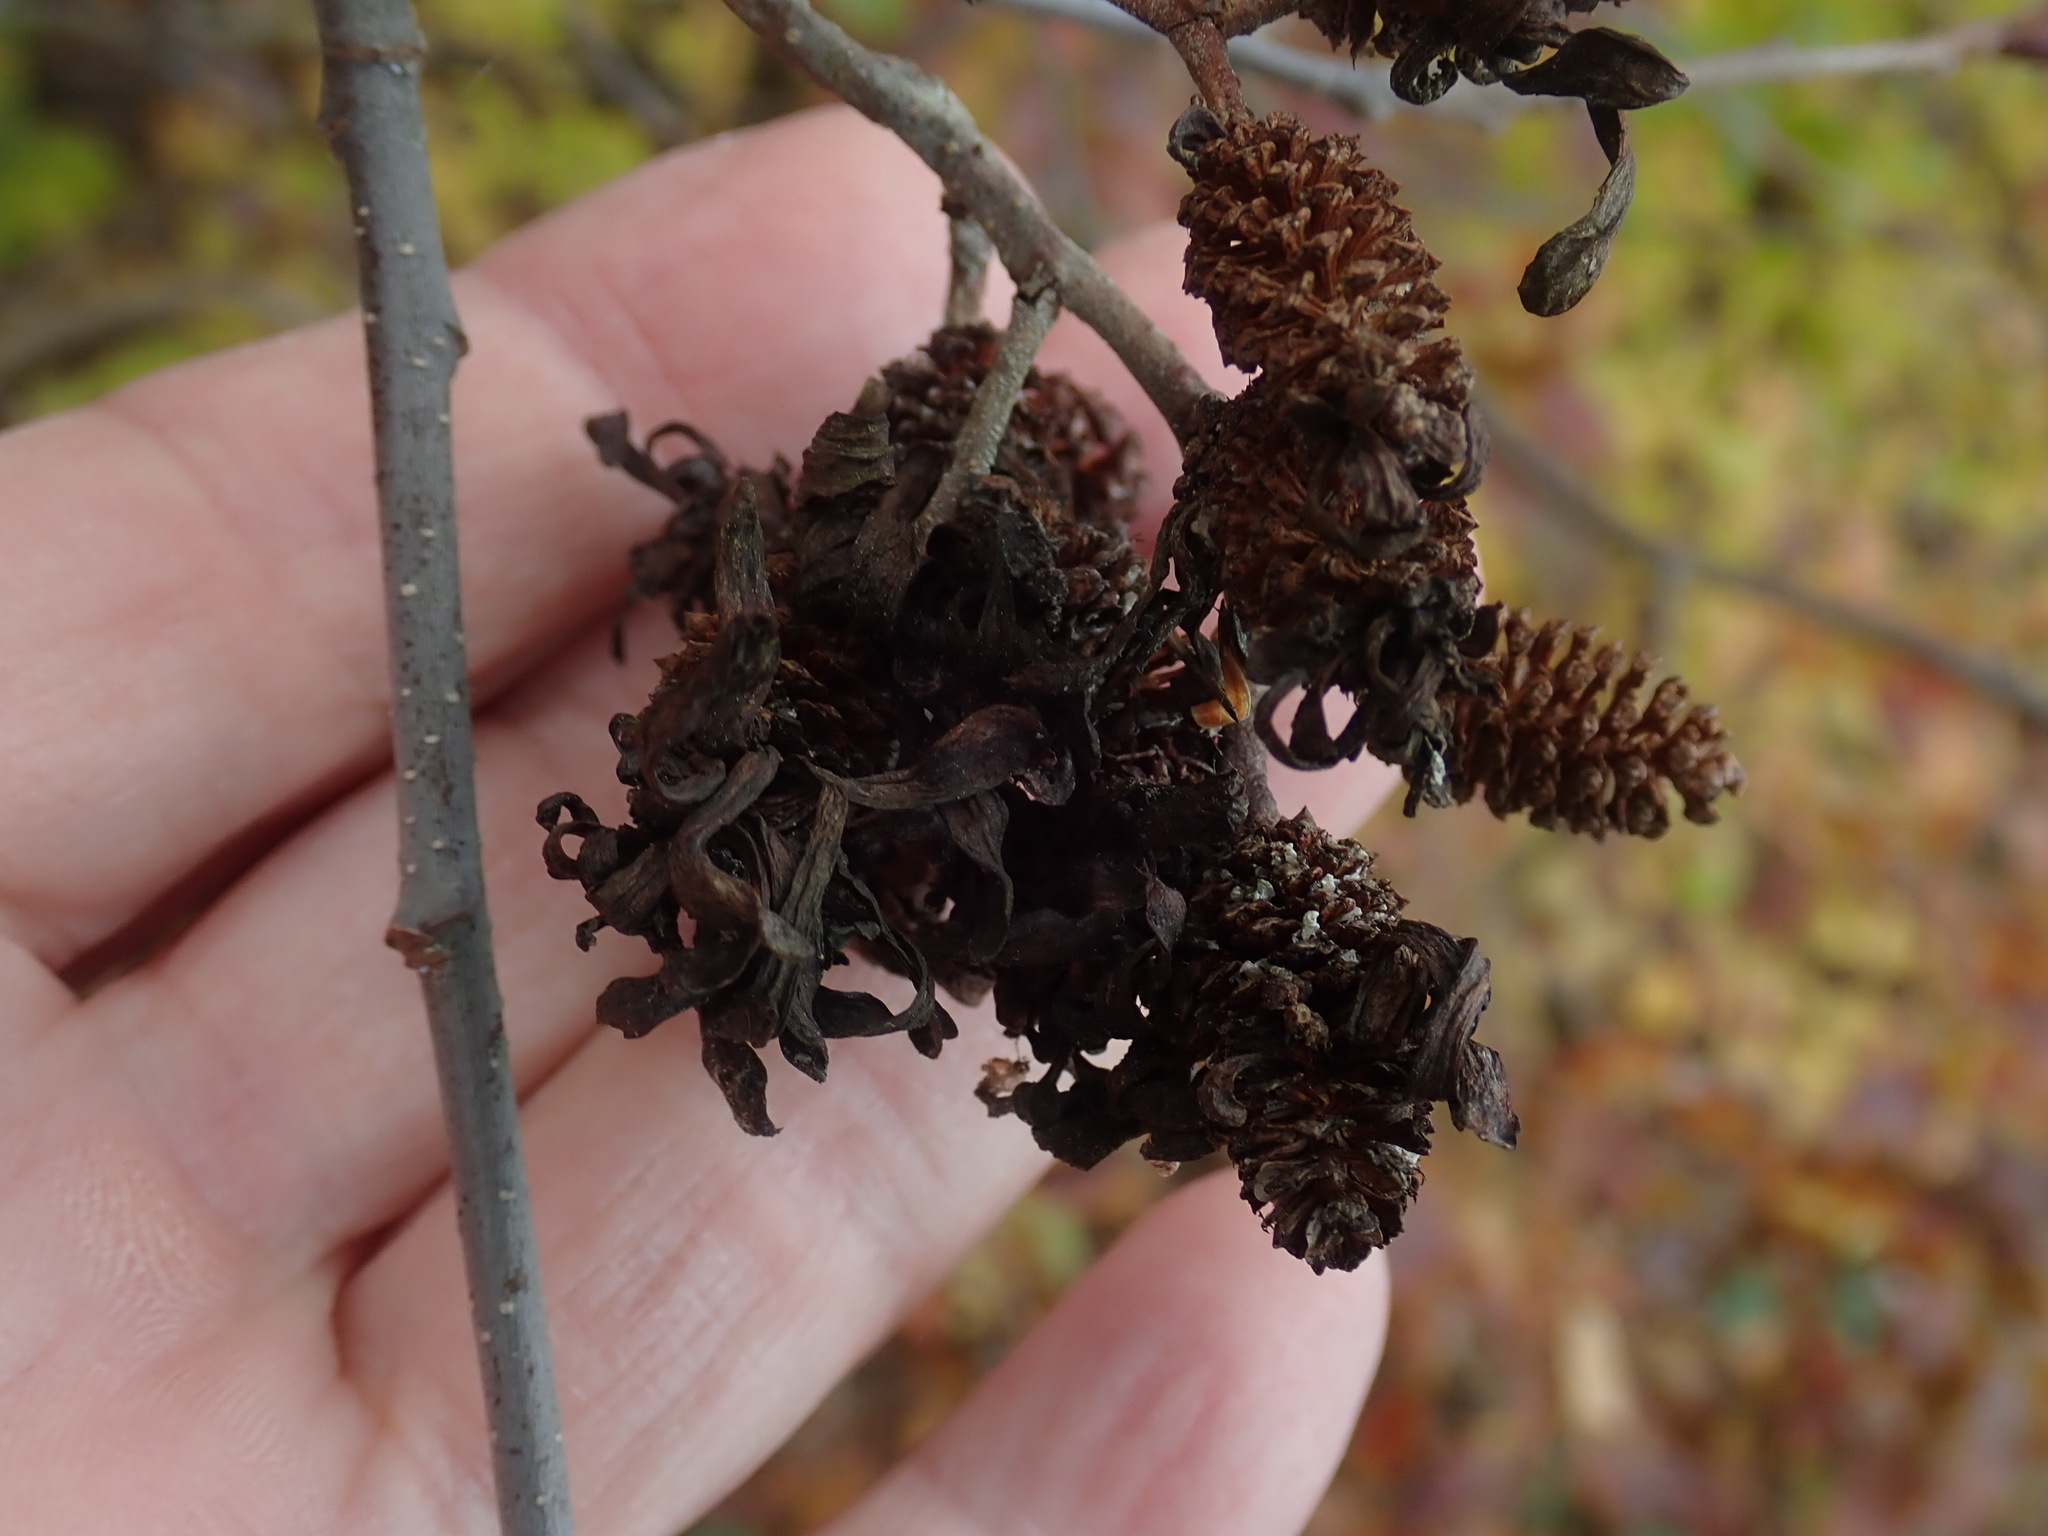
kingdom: Fungi
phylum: Ascomycota
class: Taphrinomycetes
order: Taphrinales
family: Taphrinaceae
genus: Taphrina
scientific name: Taphrina robinsoniana
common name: Eastern american alder tongue gall fungus
